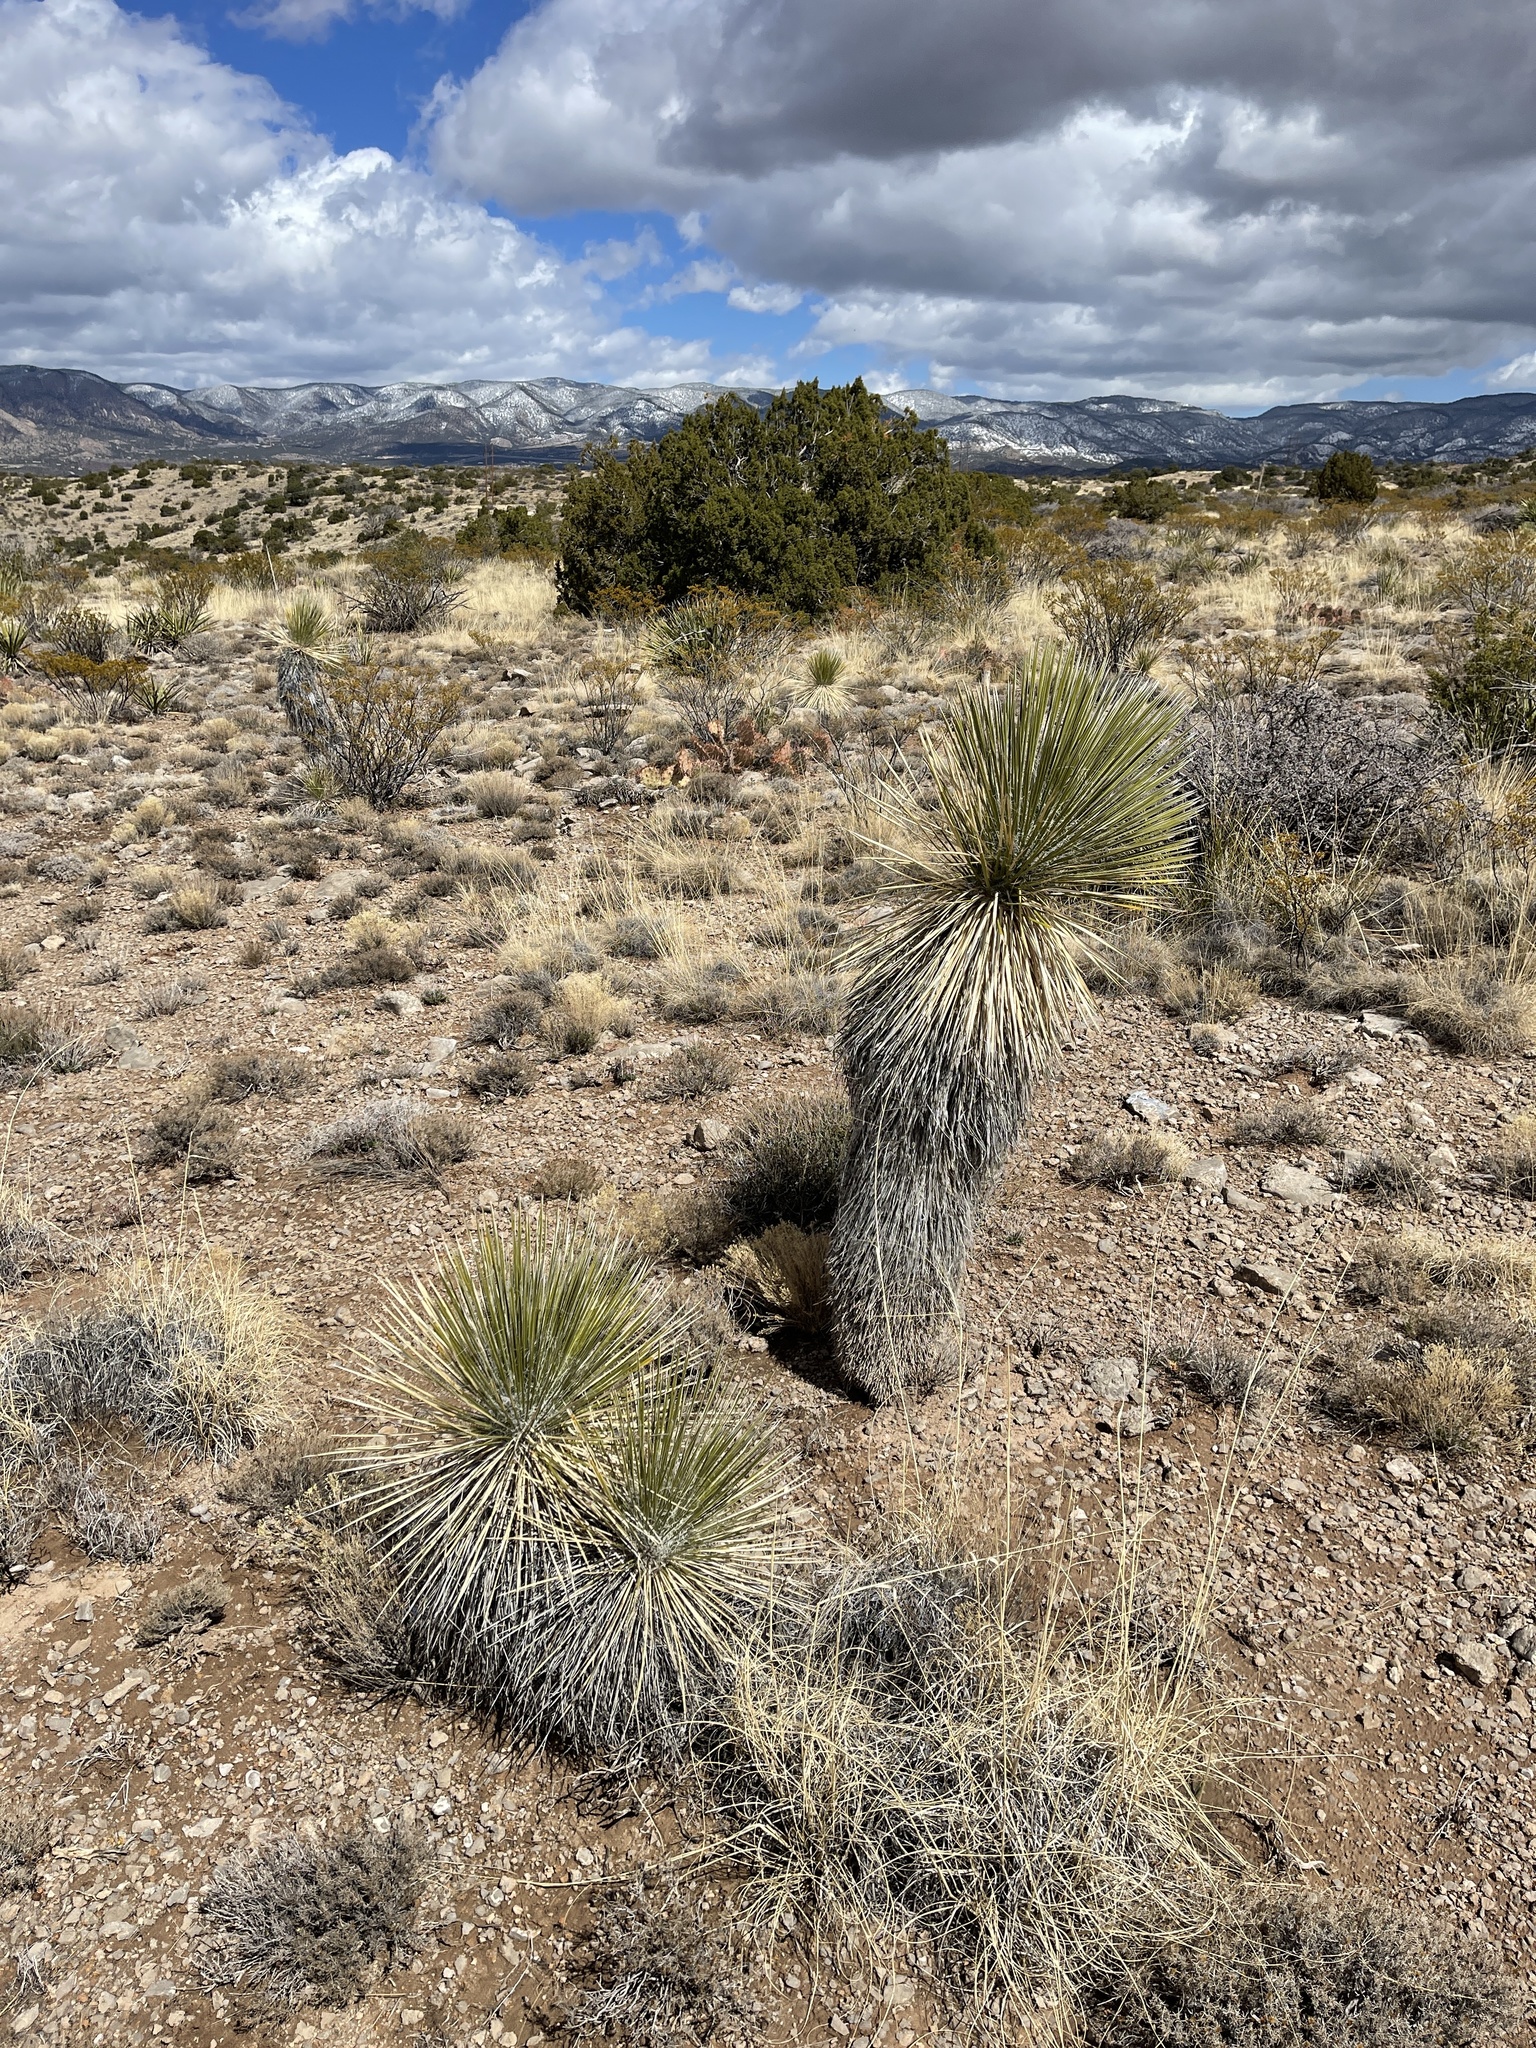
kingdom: Plantae
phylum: Tracheophyta
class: Liliopsida
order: Asparagales
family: Asparagaceae
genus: Yucca
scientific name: Yucca elata
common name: Palmella
